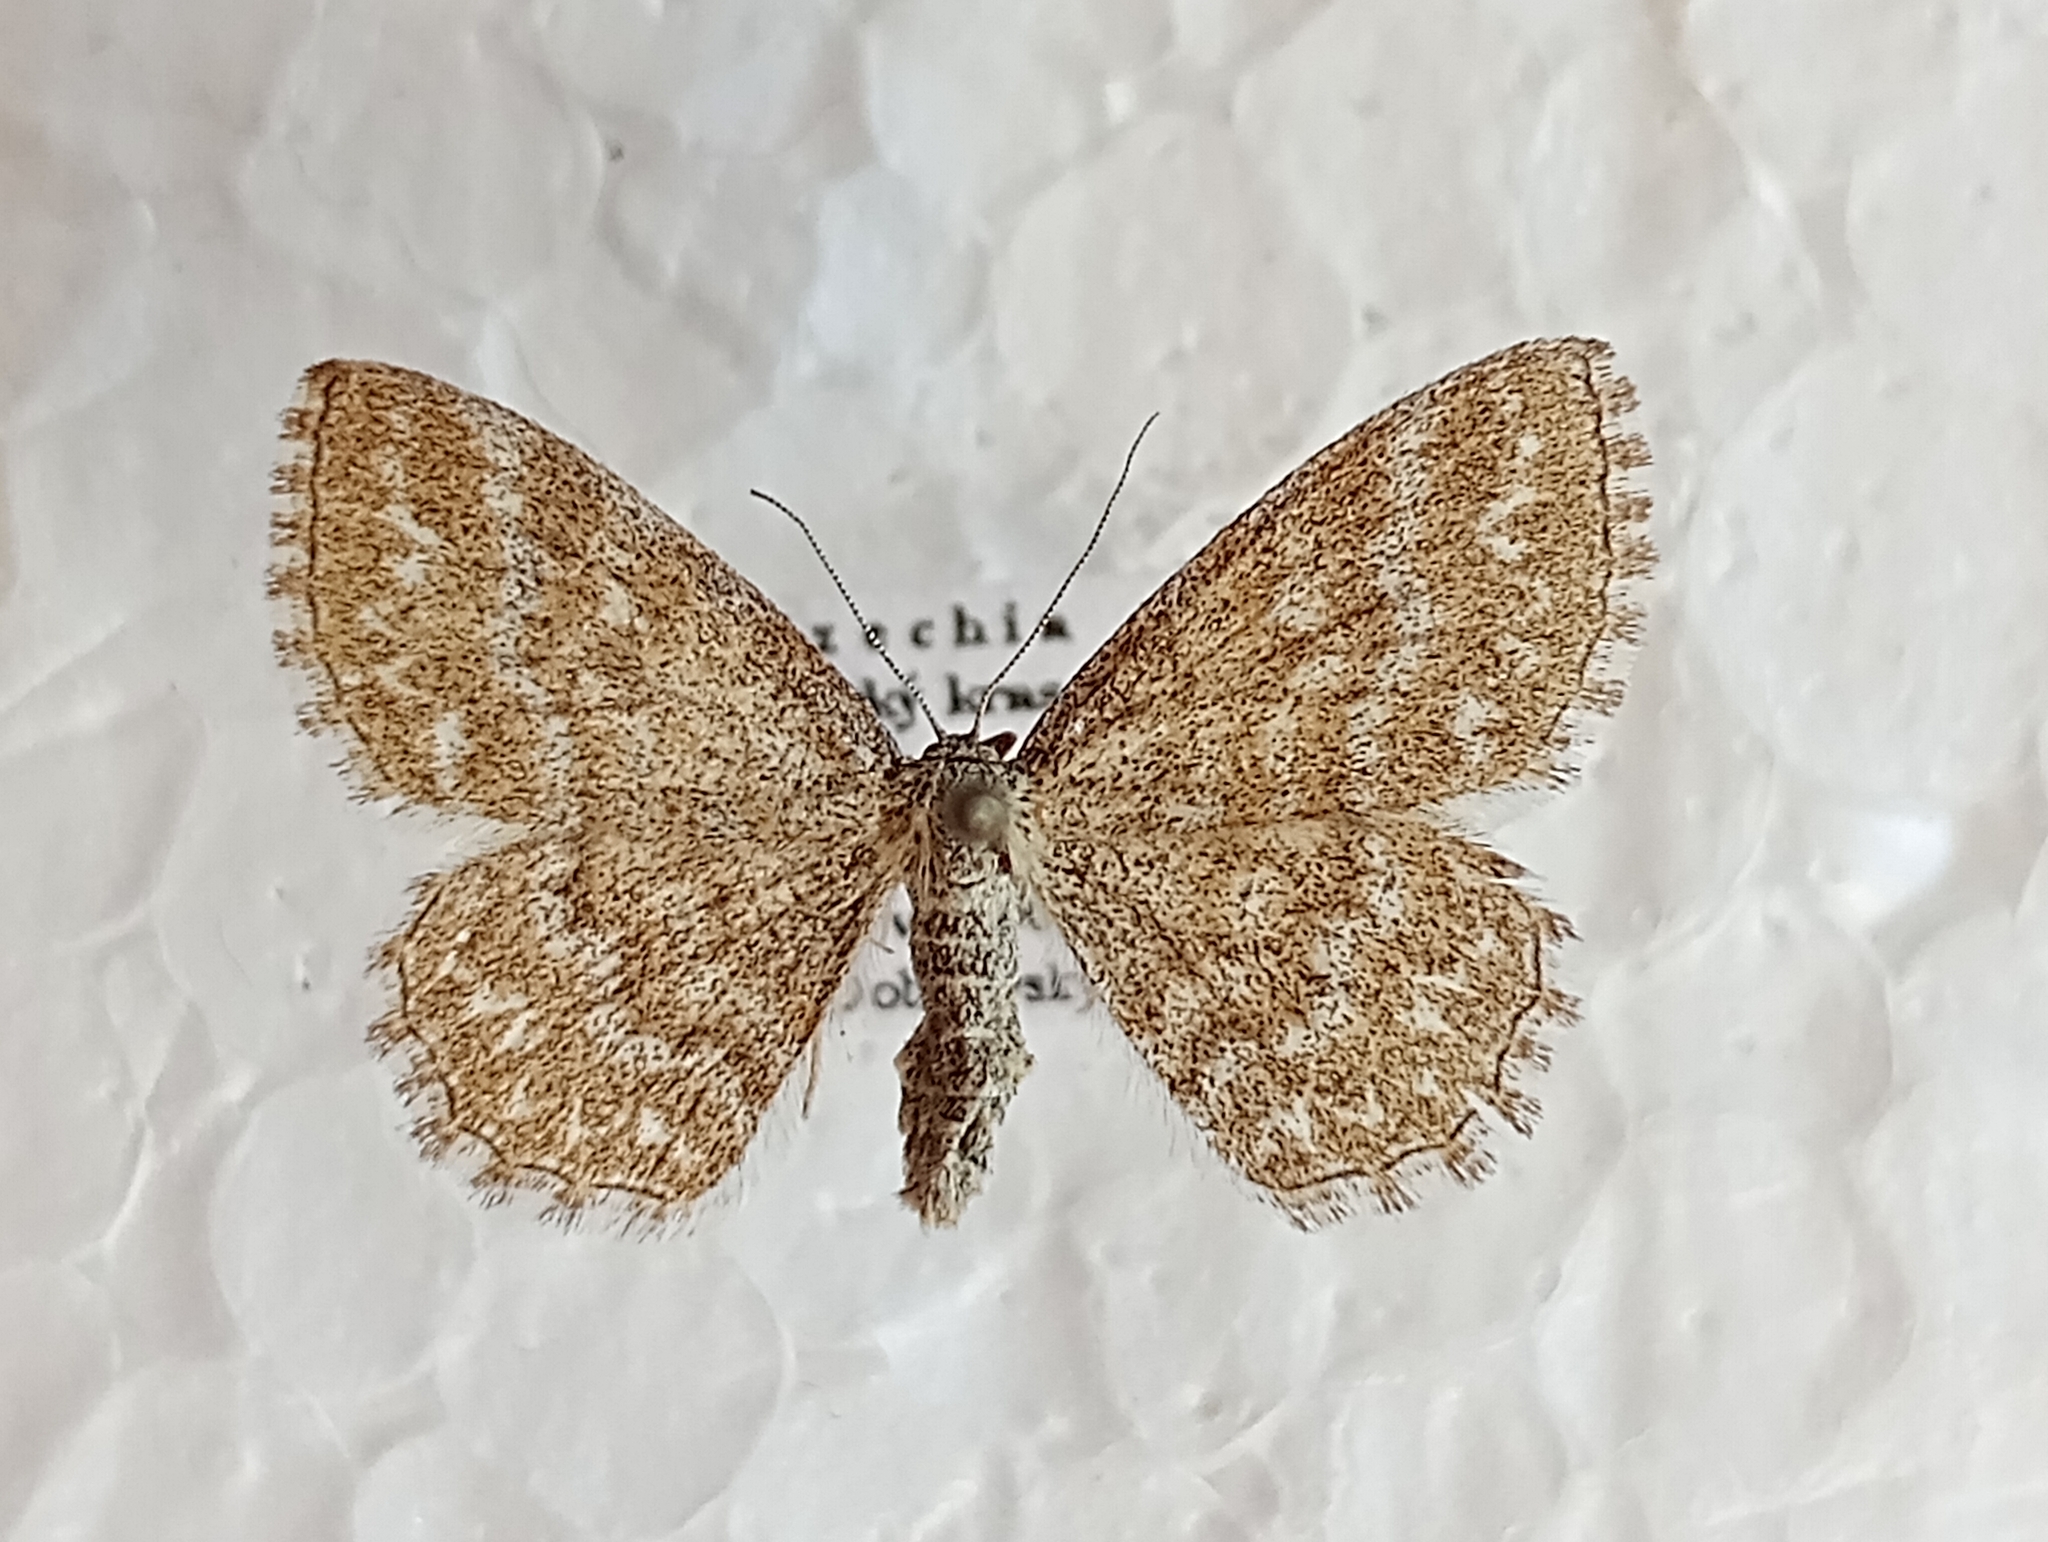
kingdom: Animalia
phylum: Arthropoda
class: Insecta
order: Lepidoptera
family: Geometridae
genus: Scopula
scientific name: Scopula immorata
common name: Lewes wave
